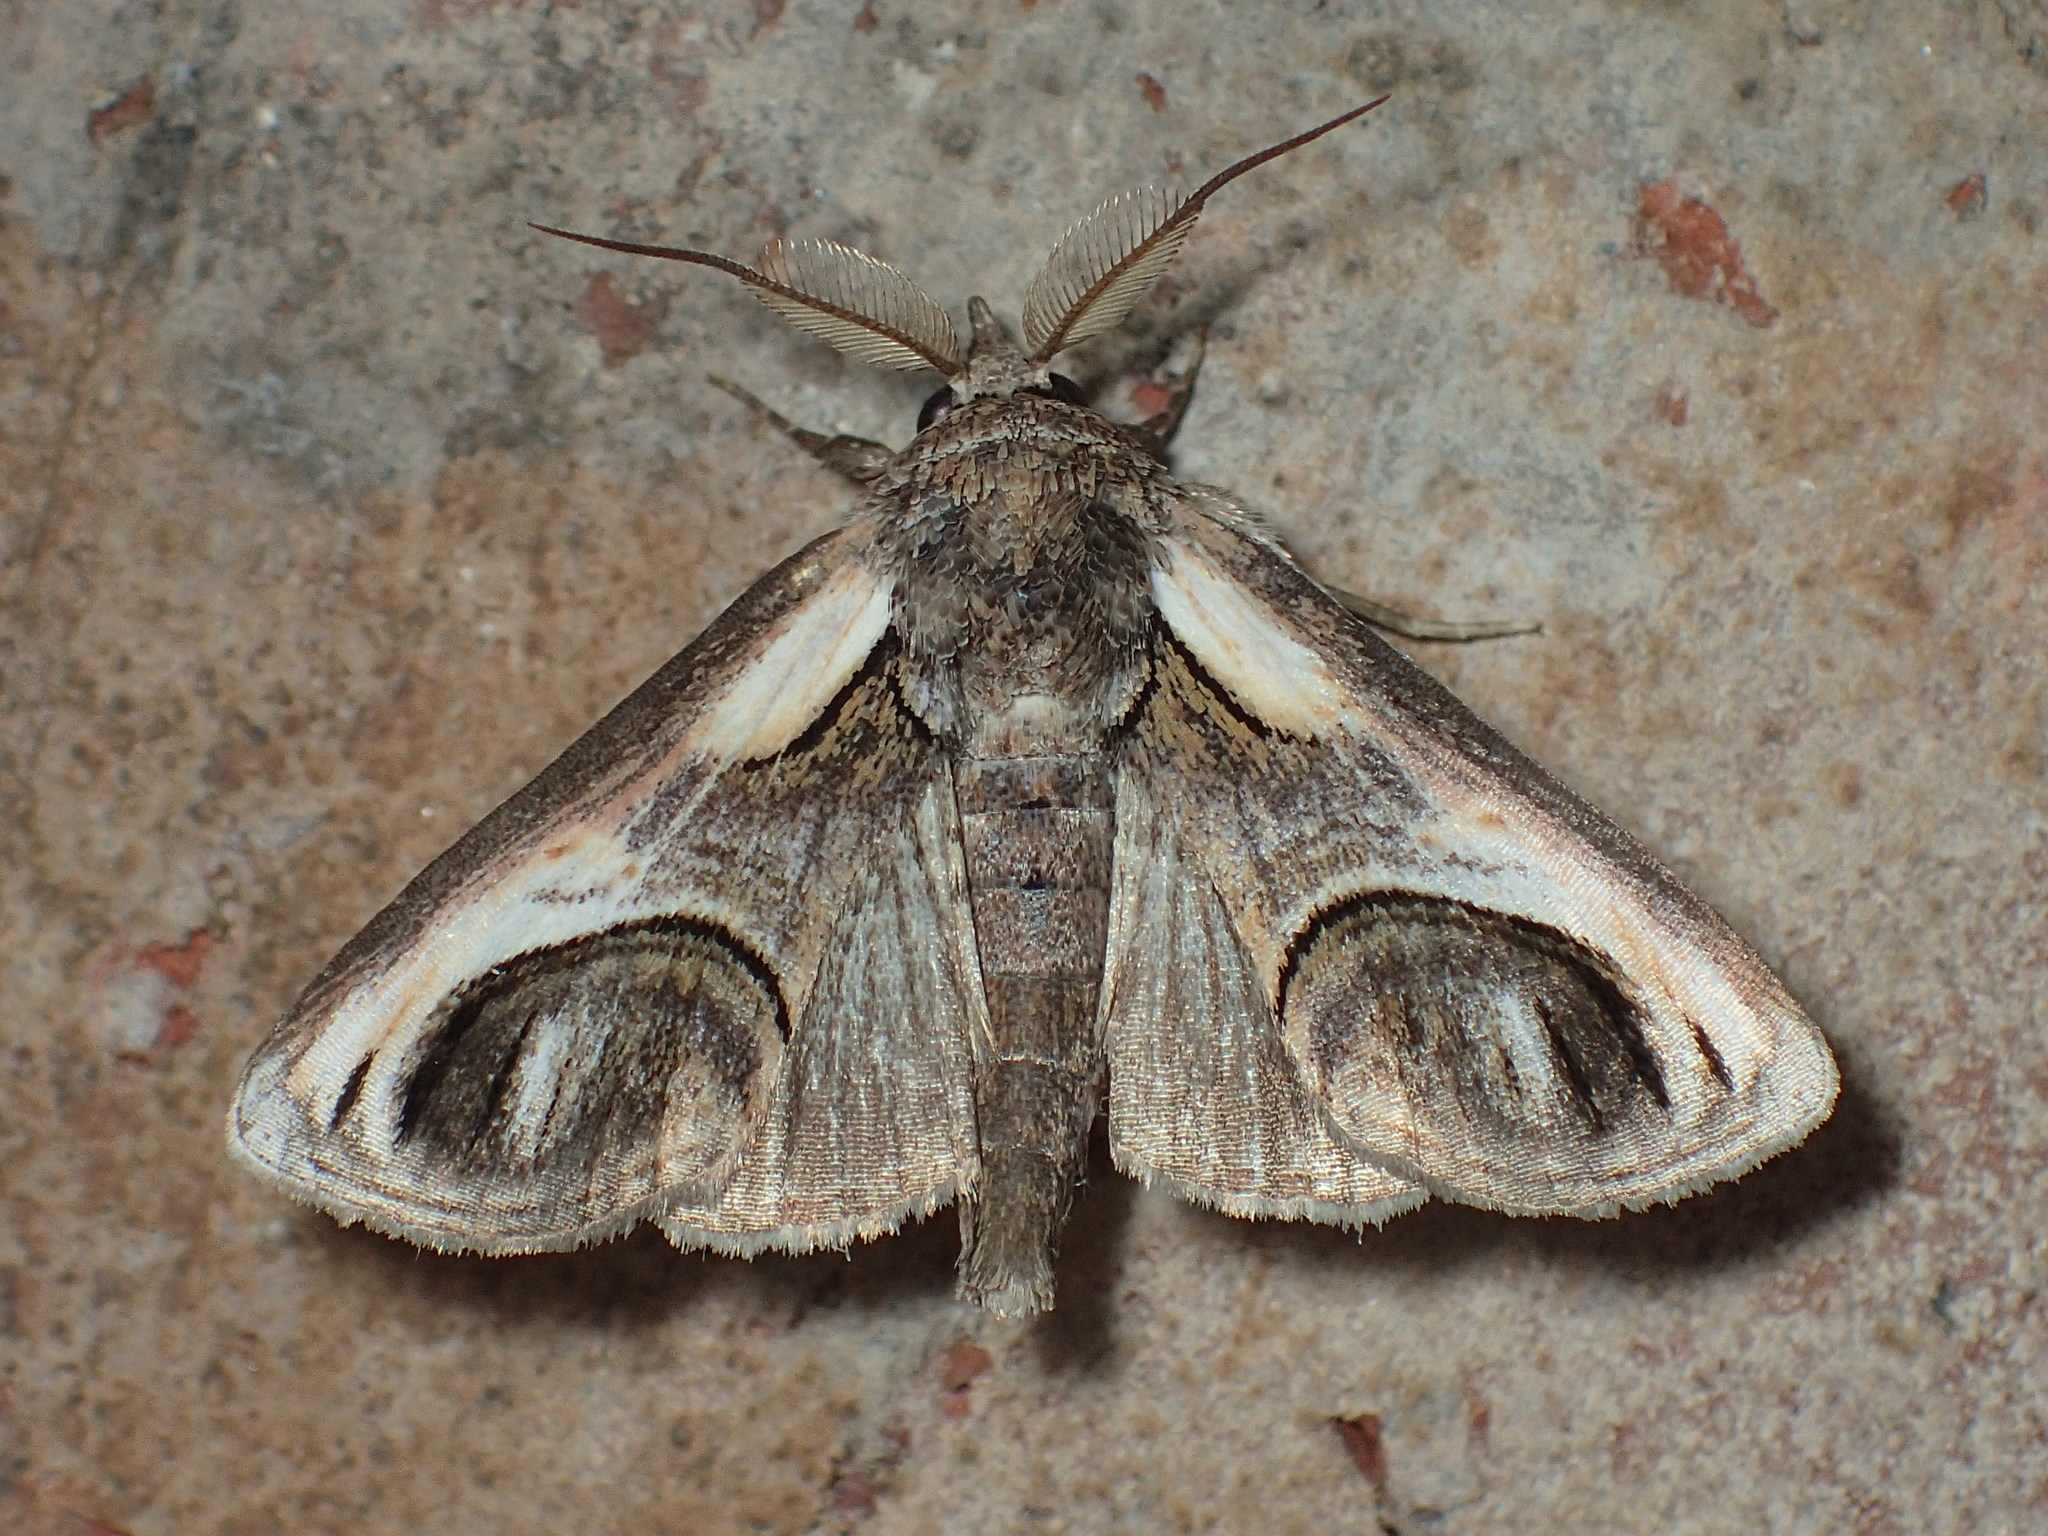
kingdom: Animalia
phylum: Arthropoda
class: Insecta
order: Lepidoptera
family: Euteliidae
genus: Paectes
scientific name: Paectes oculatrix
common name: Eyed paectes moth
